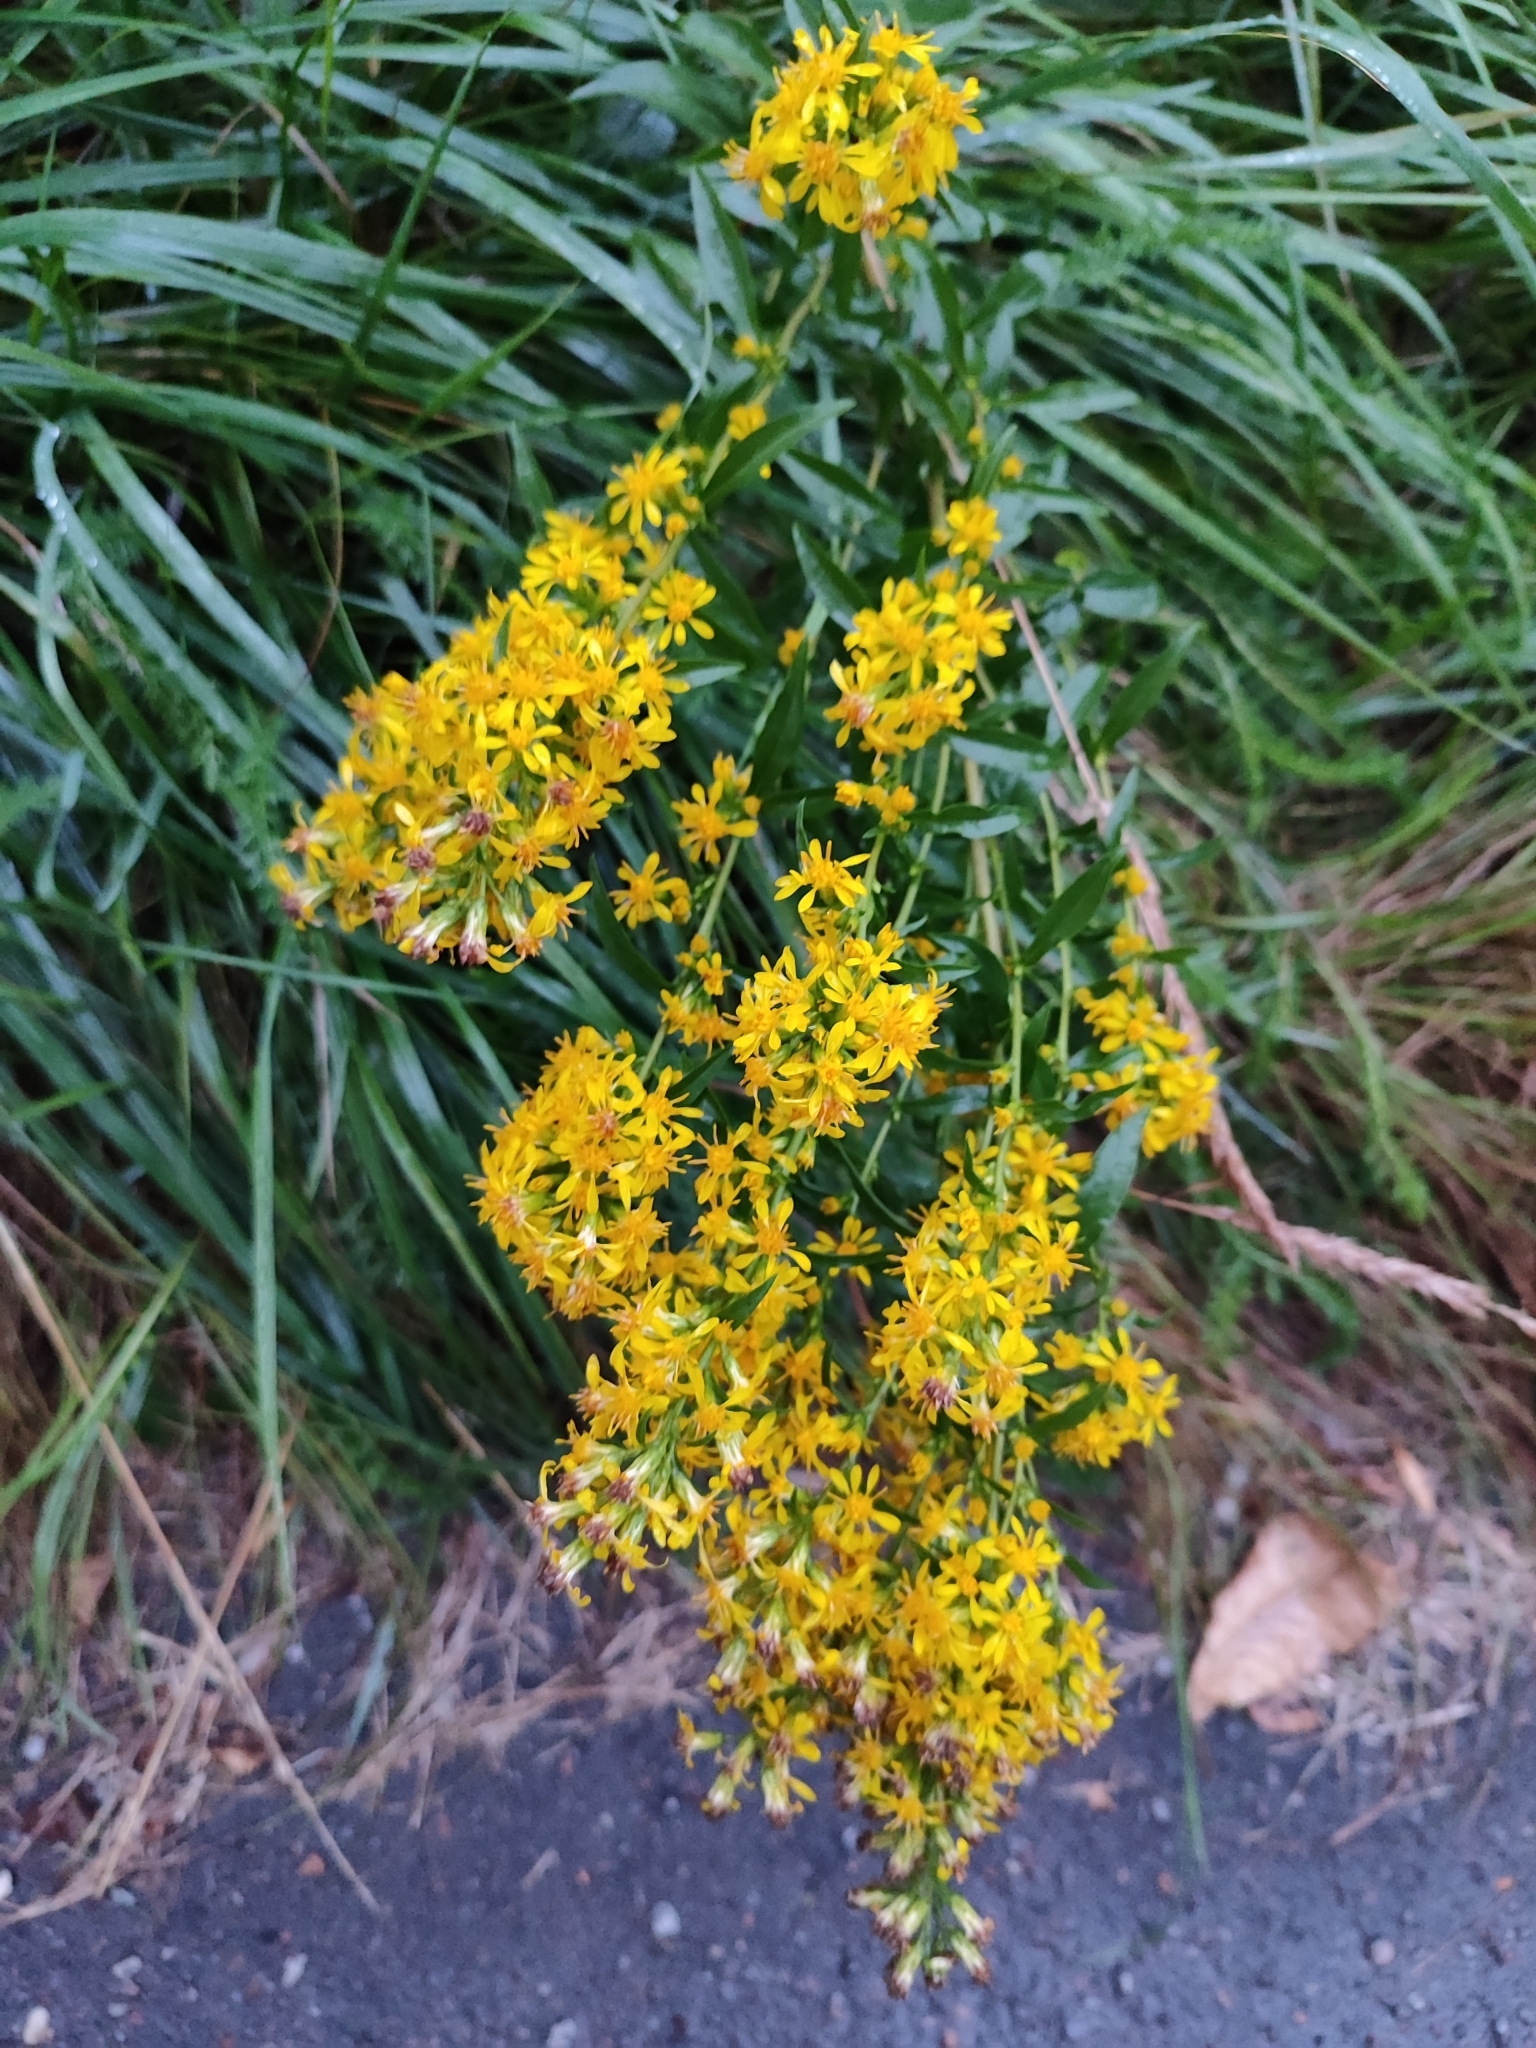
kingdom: Plantae
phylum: Tracheophyta
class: Magnoliopsida
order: Asterales
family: Asteraceae
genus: Solidago
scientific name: Solidago virgaurea
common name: Goldenrod
